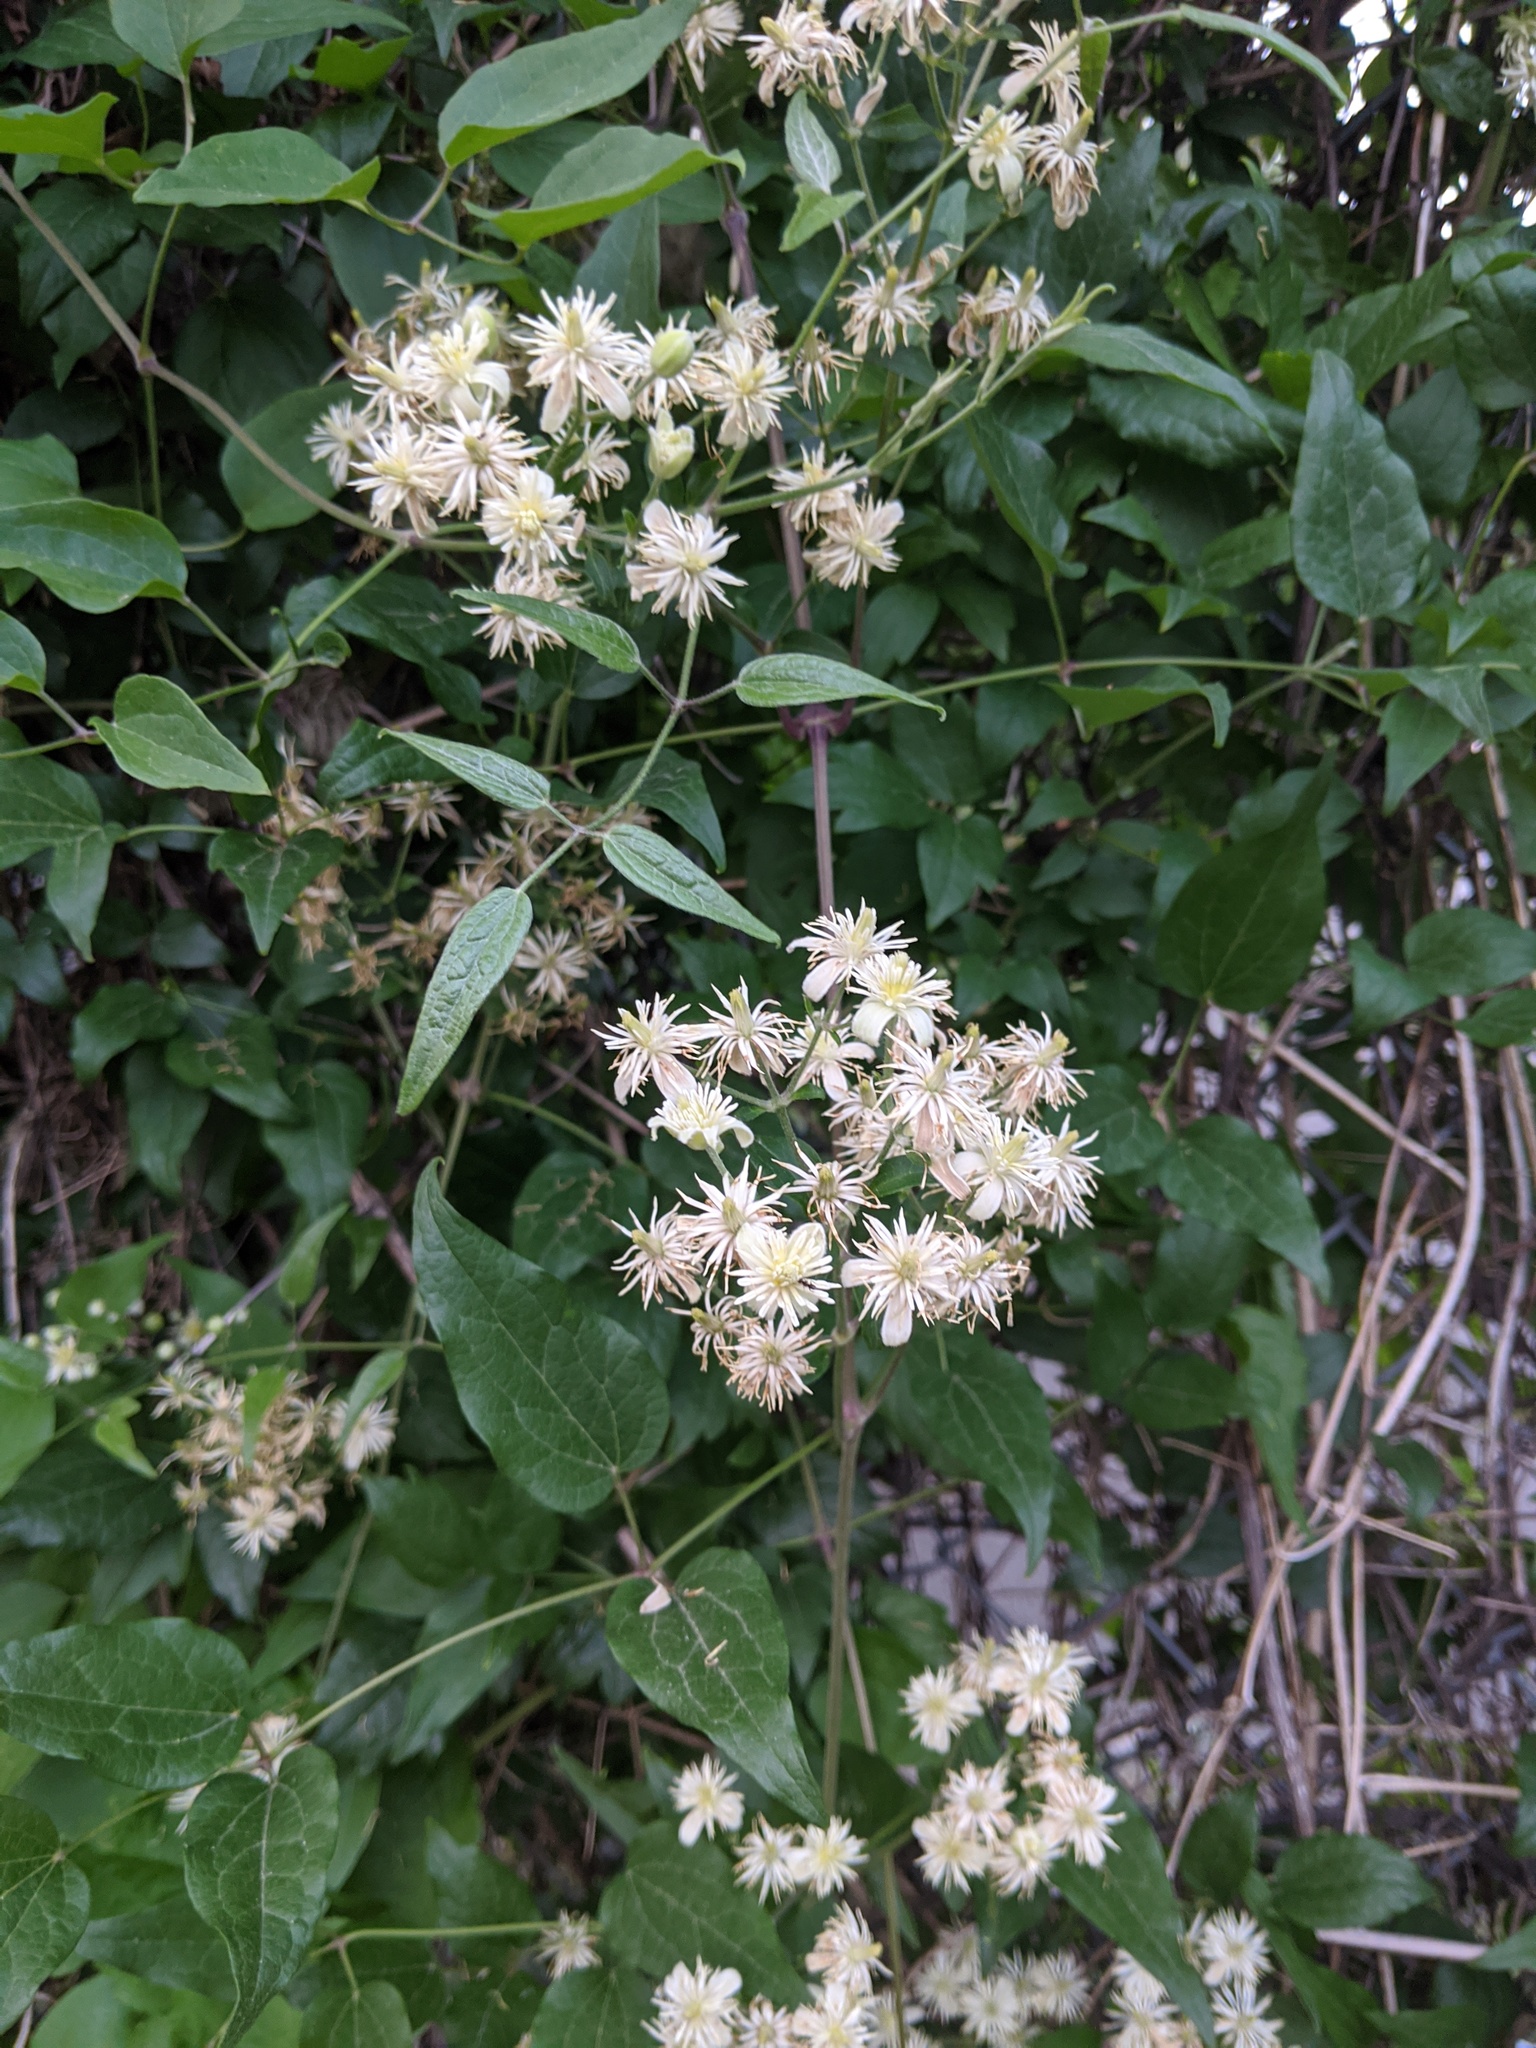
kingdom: Plantae
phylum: Tracheophyta
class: Magnoliopsida
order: Ranunculales
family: Ranunculaceae
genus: Clematis
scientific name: Clematis terniflora
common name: Sweet autumn clematis
